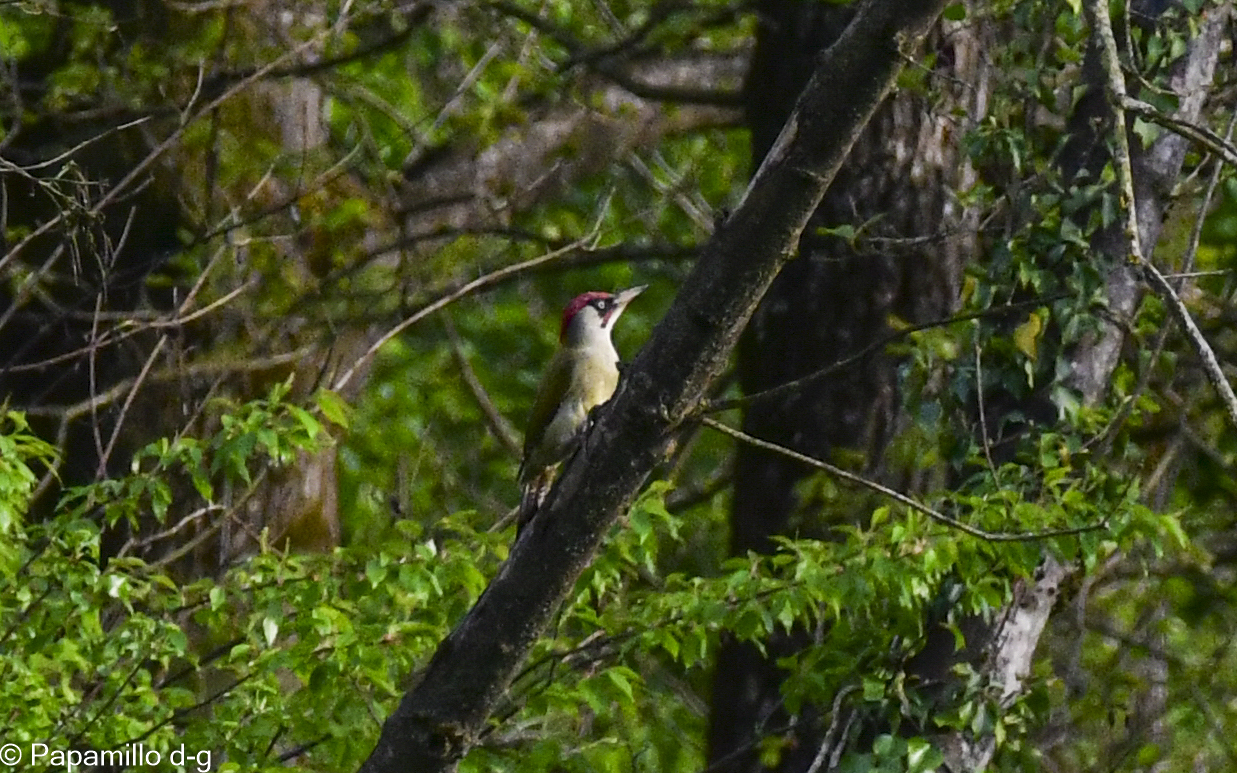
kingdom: Animalia
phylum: Chordata
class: Aves
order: Piciformes
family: Picidae
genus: Picus
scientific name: Picus viridis
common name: European green woodpecker
